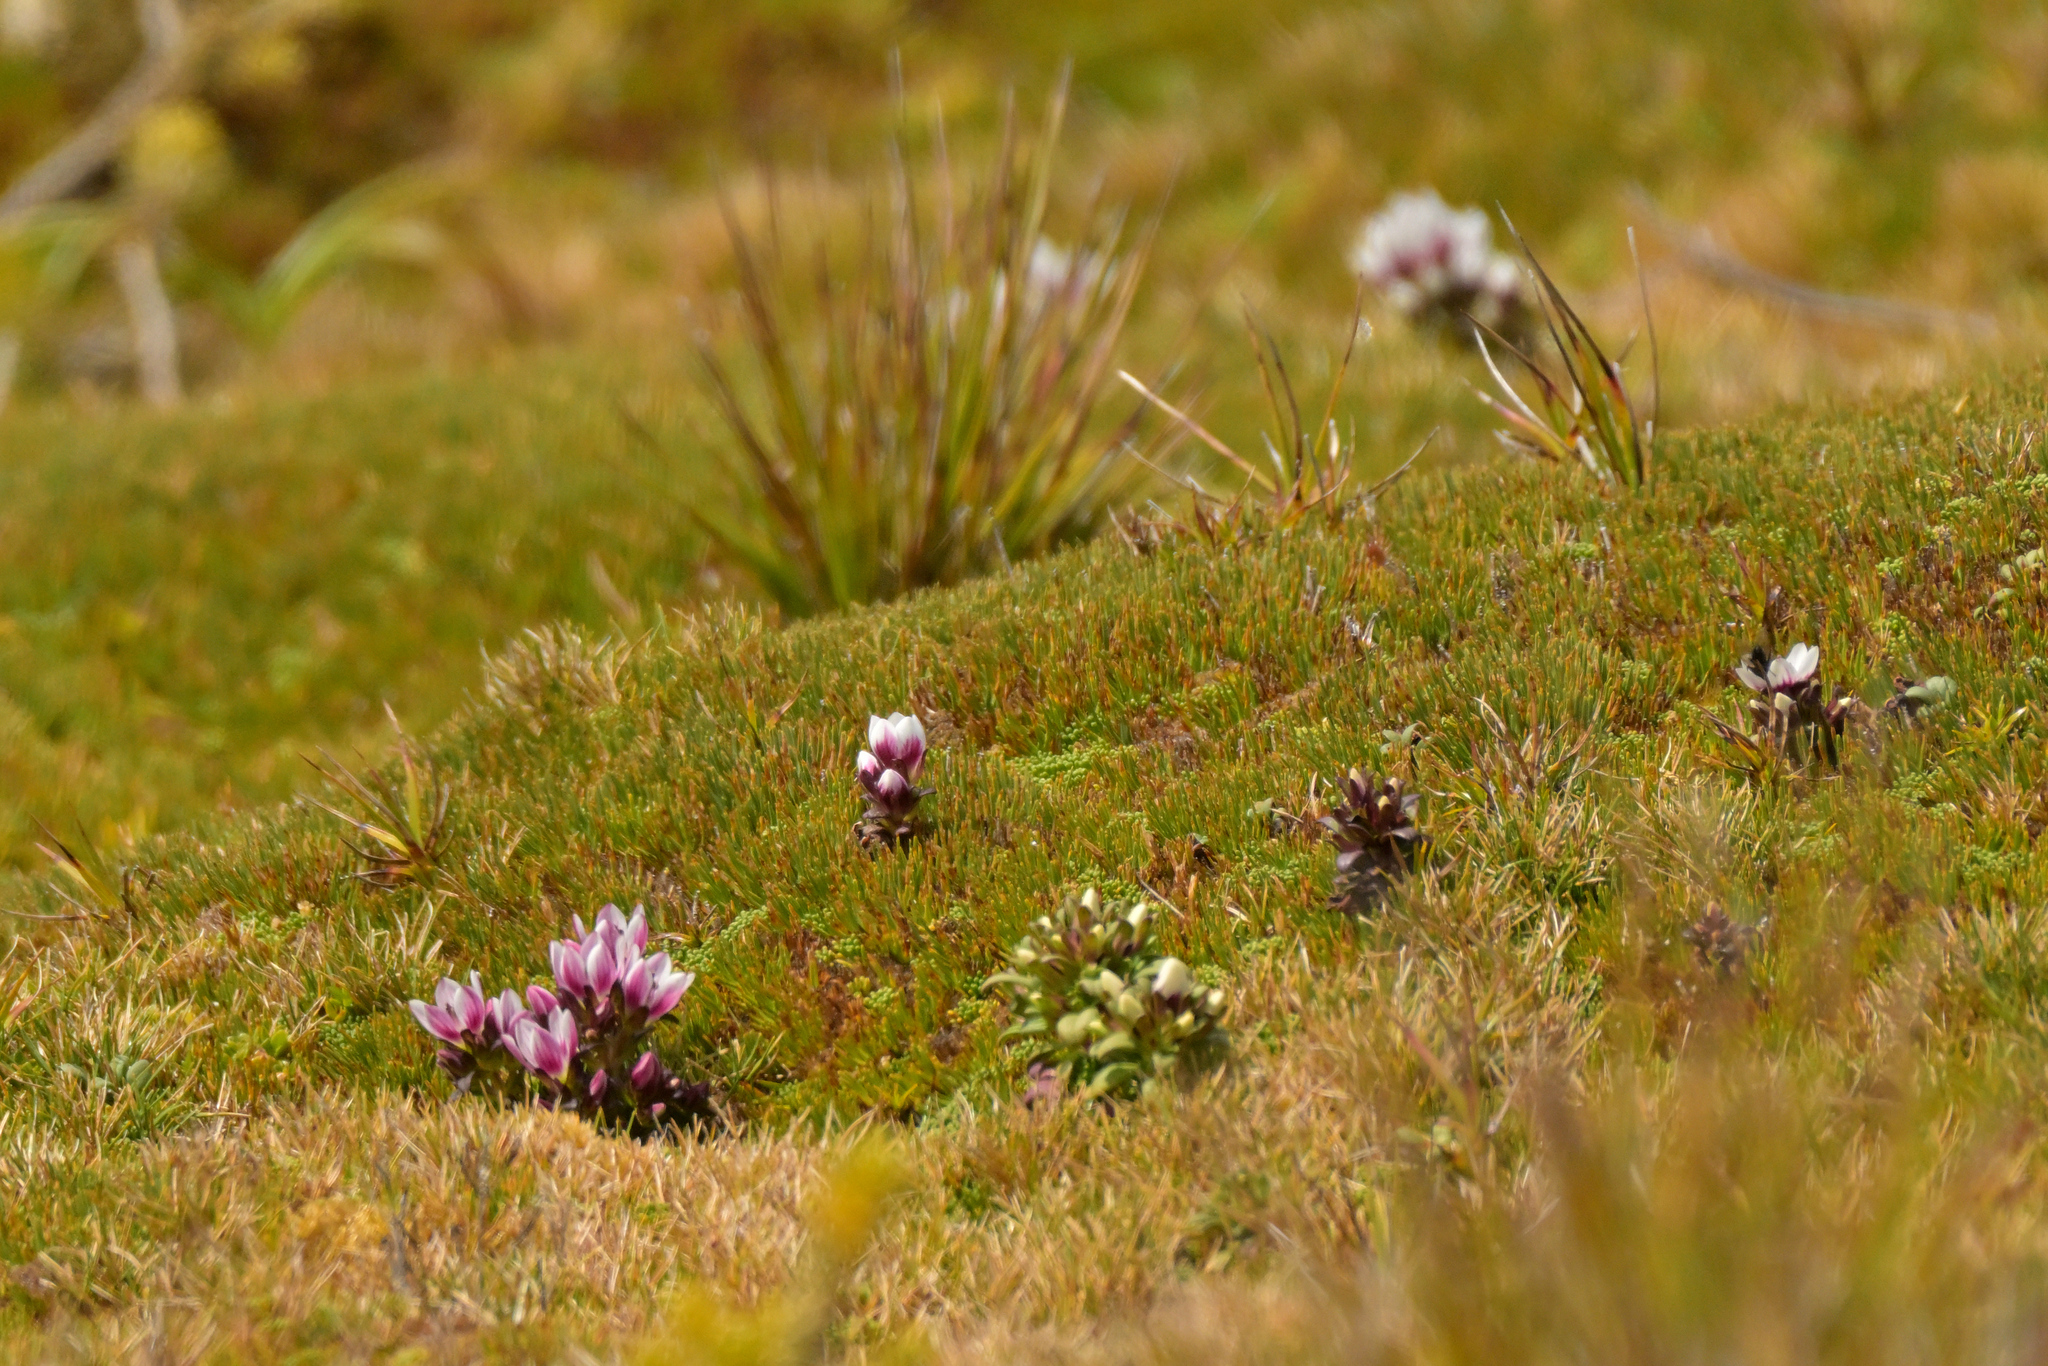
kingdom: Plantae
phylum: Tracheophyta
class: Magnoliopsida
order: Gentianales
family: Gentianaceae
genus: Gentianella
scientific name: Gentianella concinna
